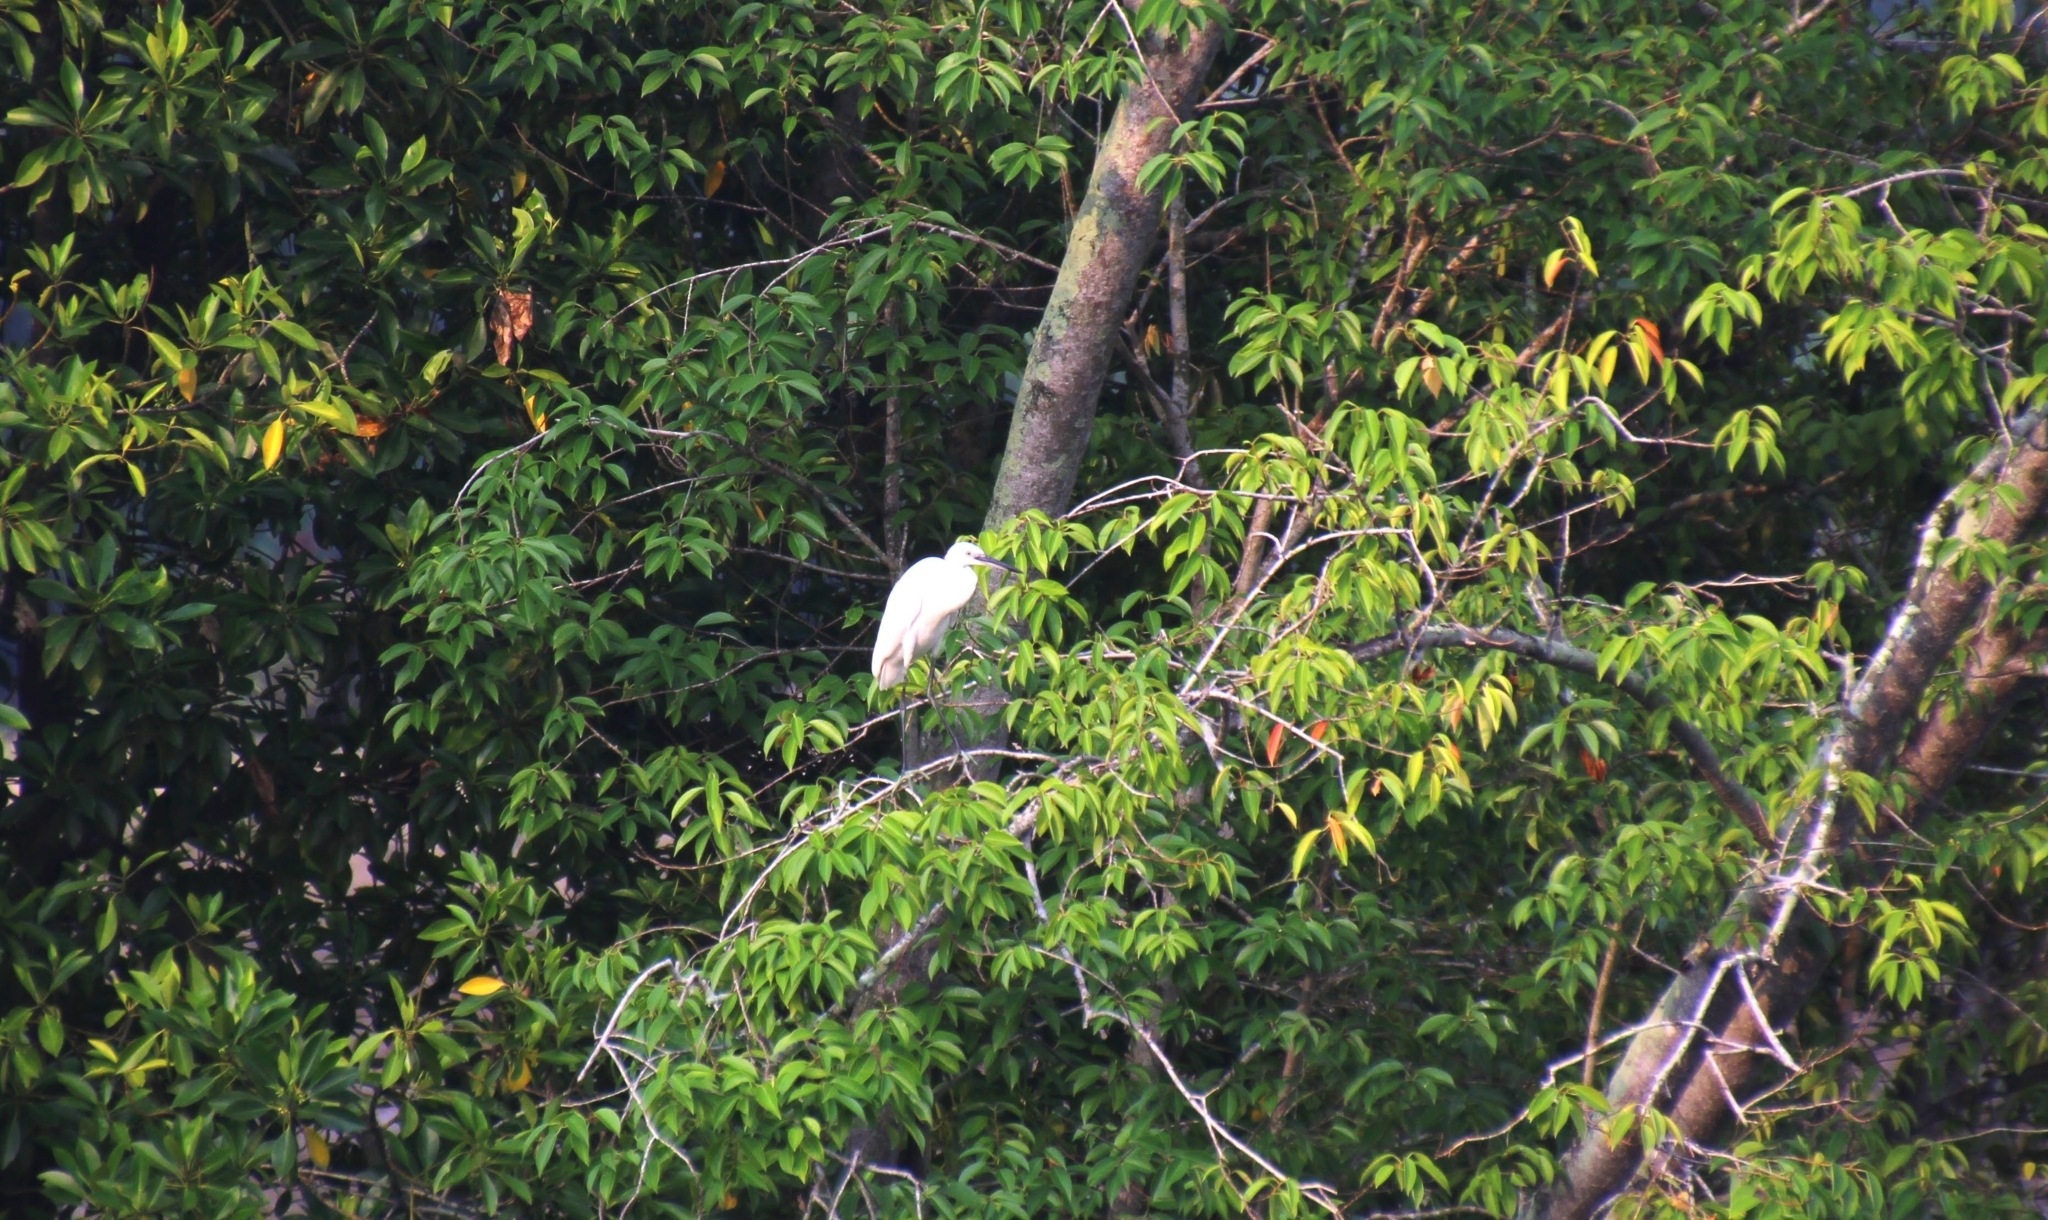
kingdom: Animalia
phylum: Chordata
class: Aves
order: Pelecaniformes
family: Ardeidae
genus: Egretta
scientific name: Egretta garzetta
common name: Little egret
